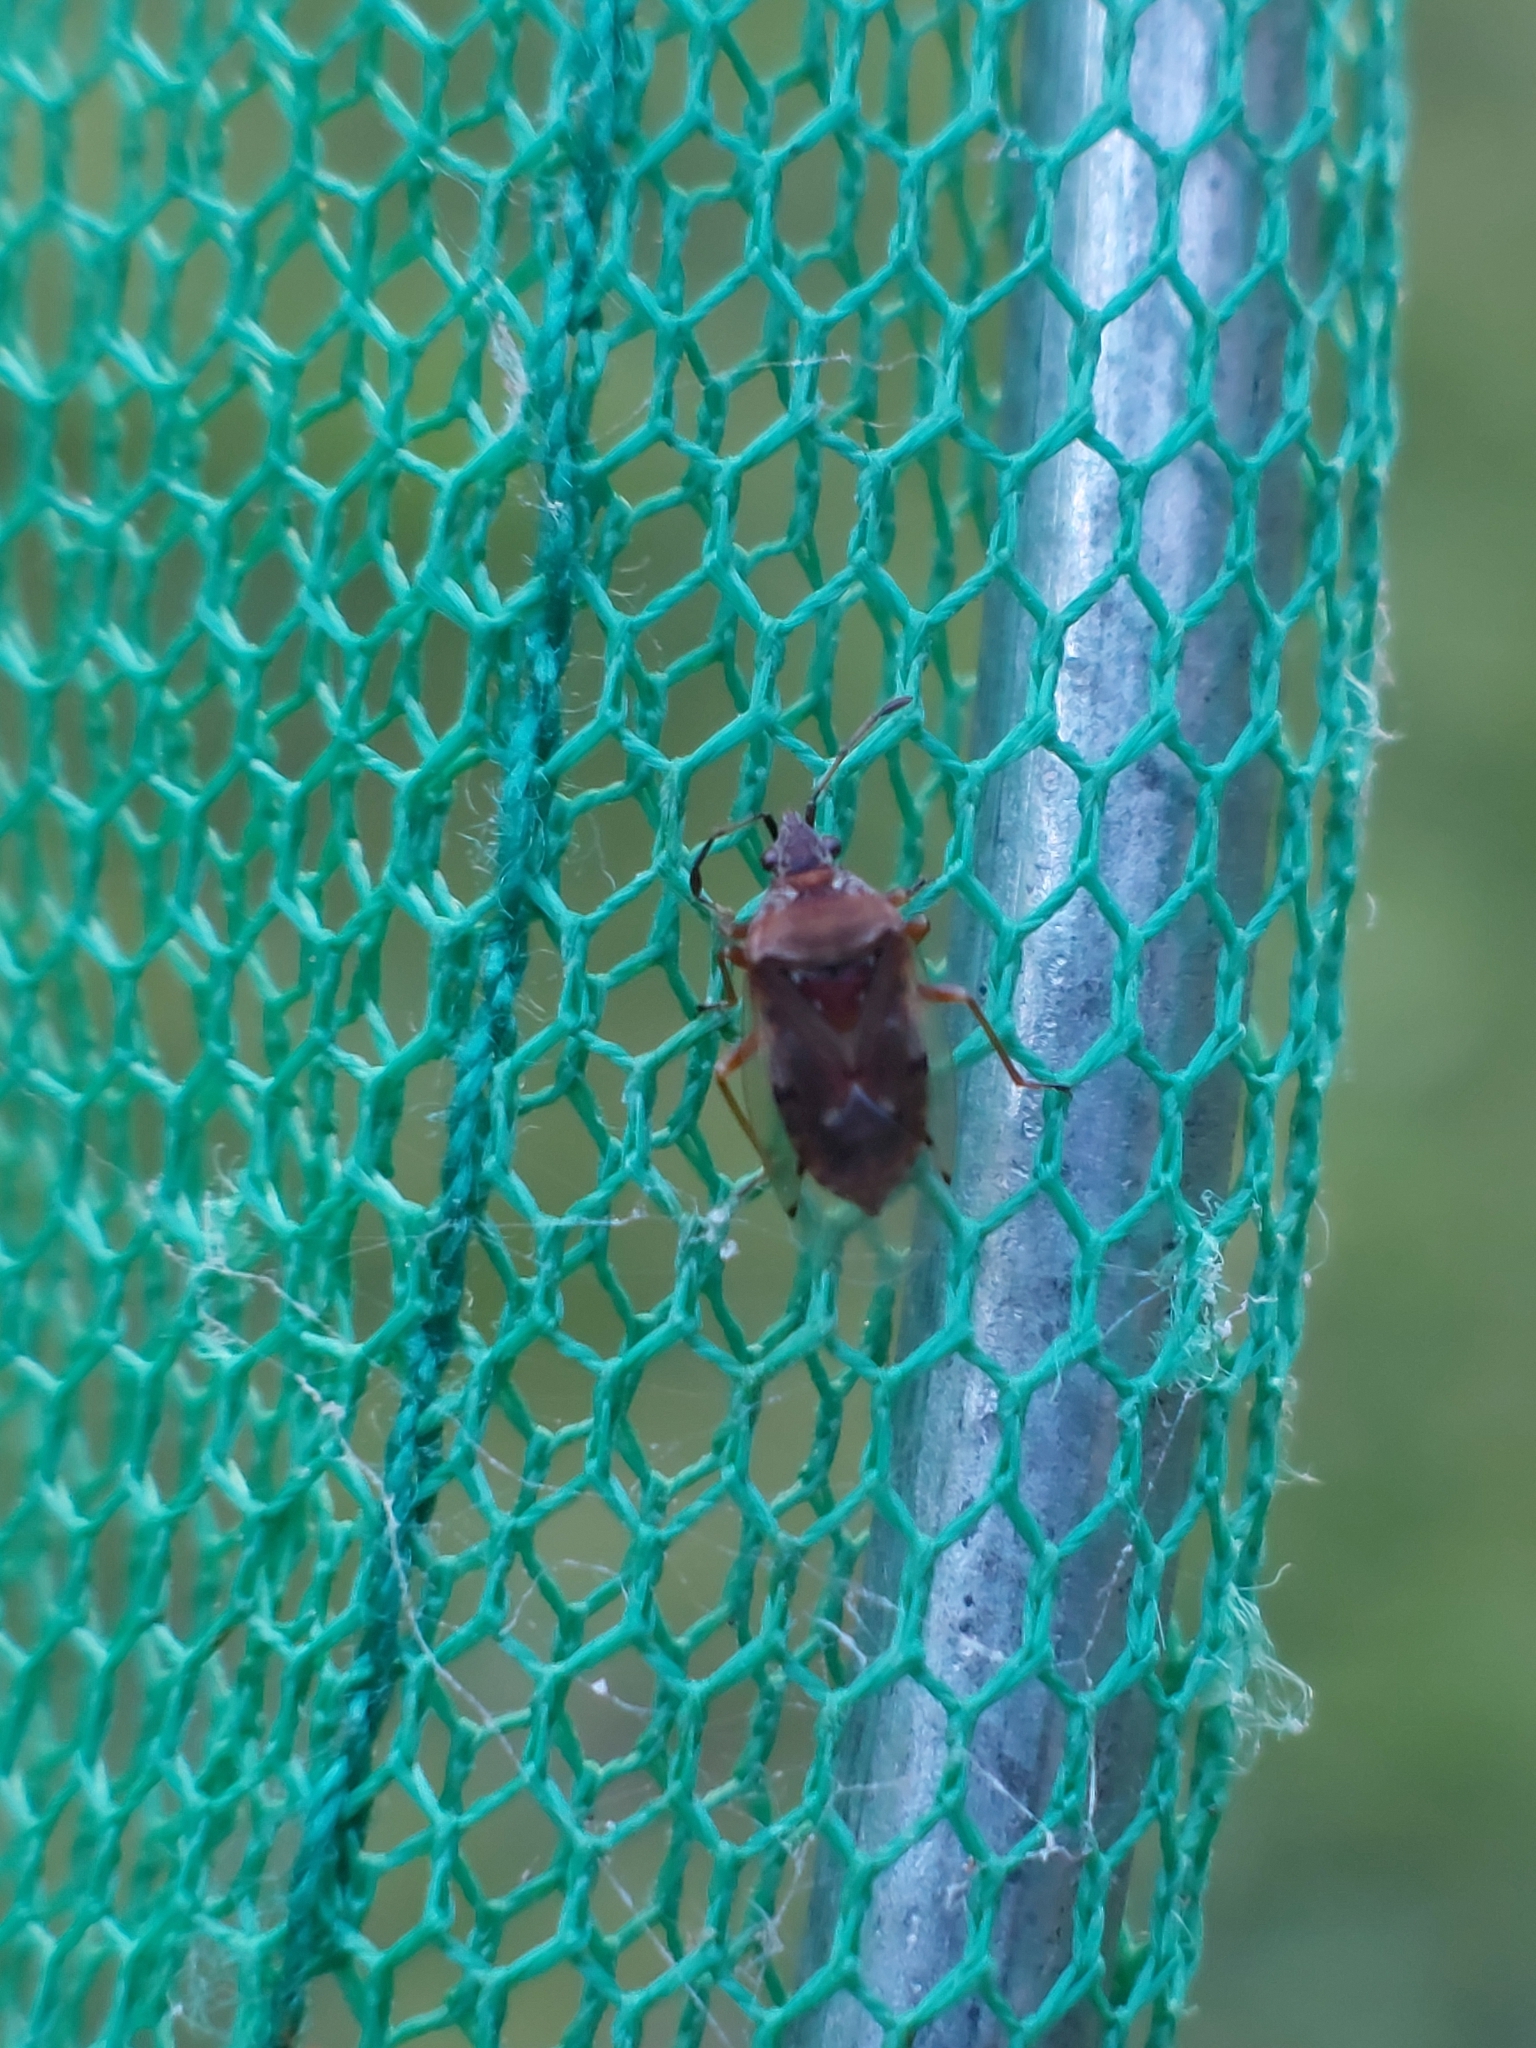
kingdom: Animalia
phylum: Arthropoda
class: Insecta
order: Hemiptera
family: Lygaeidae
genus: Kleidocerys
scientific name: Kleidocerys resedae
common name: Birch catkin bug
